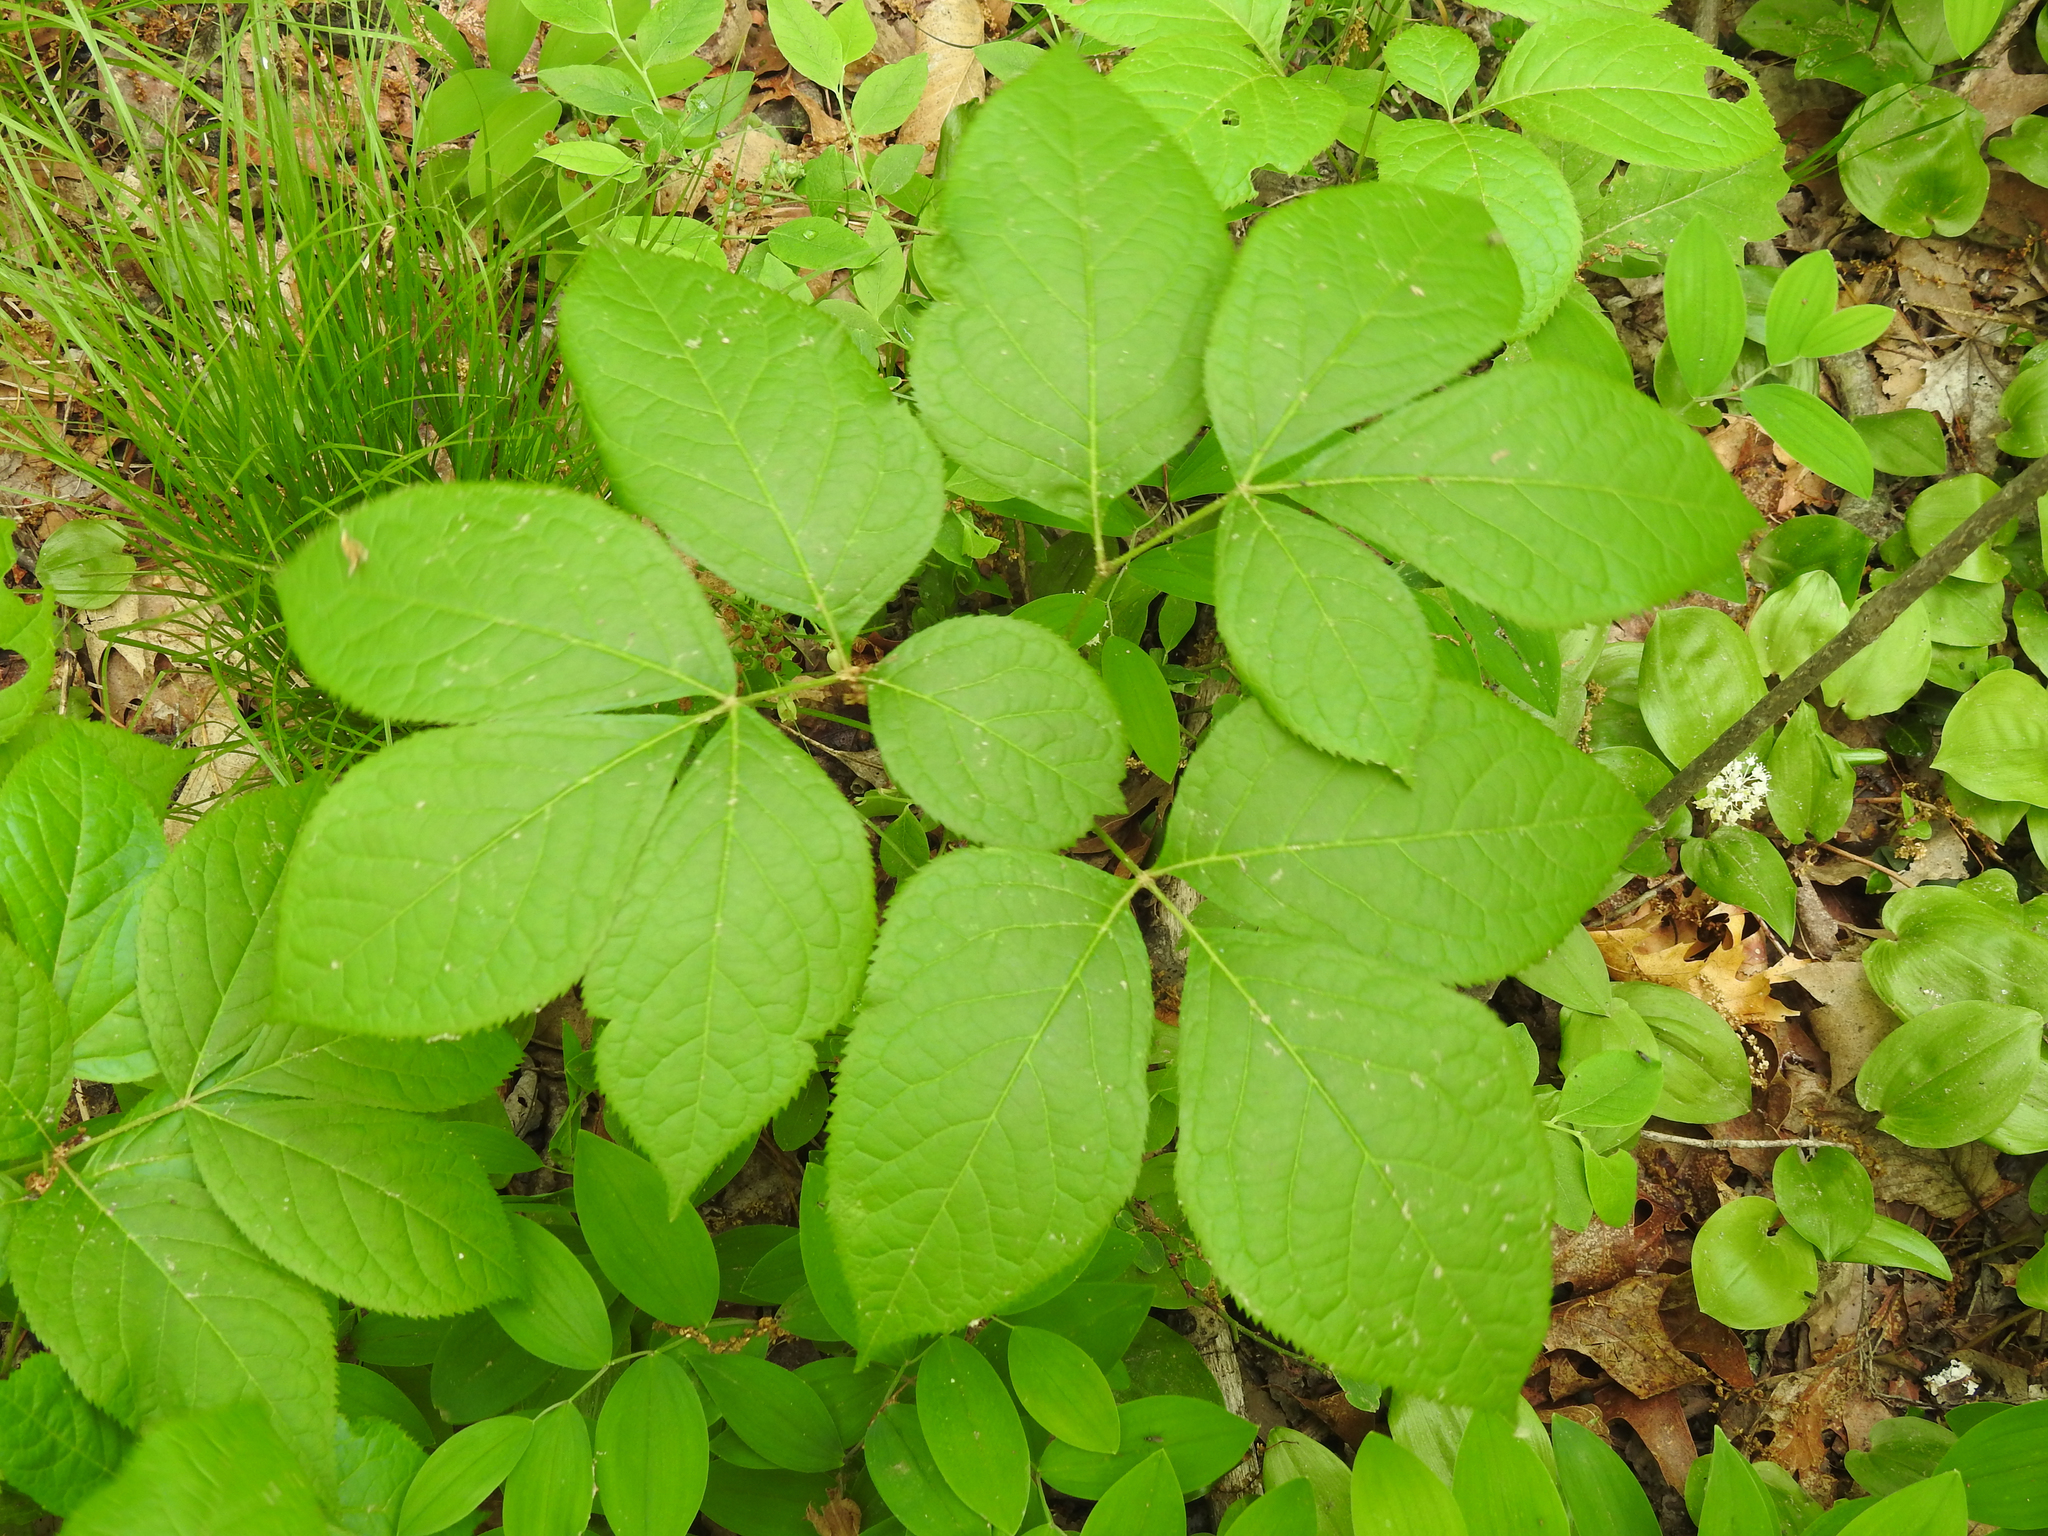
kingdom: Plantae
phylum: Tracheophyta
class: Magnoliopsida
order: Apiales
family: Araliaceae
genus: Aralia
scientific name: Aralia nudicaulis
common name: Wild sarsaparilla
